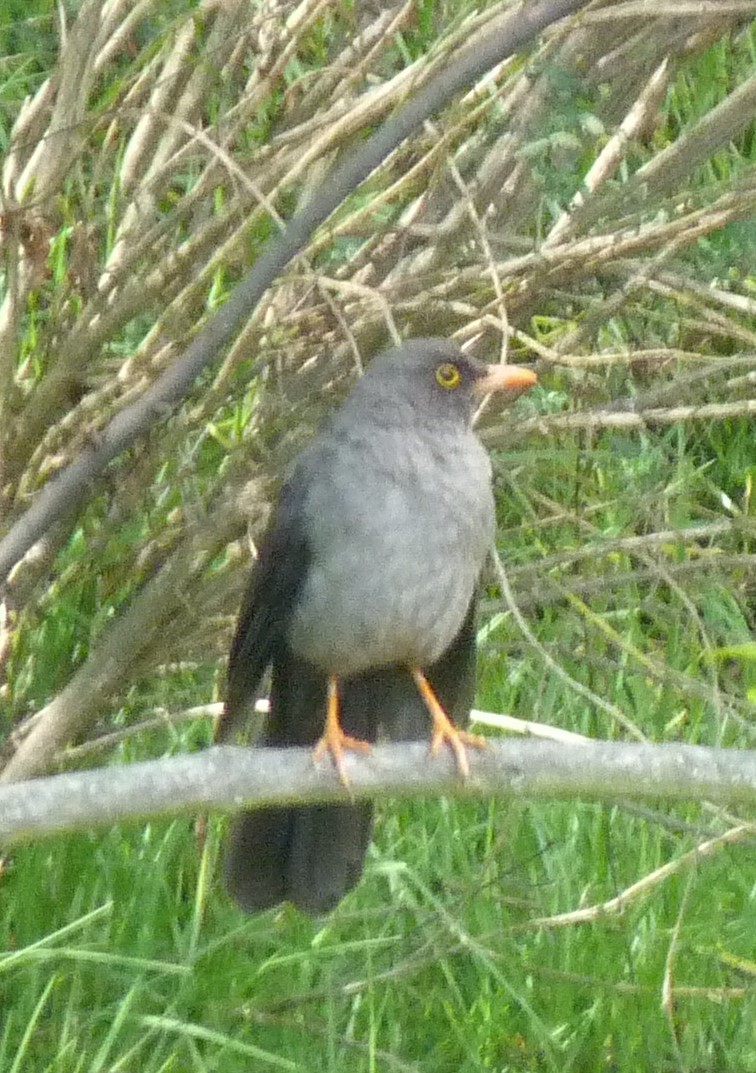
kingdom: Animalia
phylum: Chordata
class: Aves
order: Passeriformes
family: Turdidae
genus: Turdus
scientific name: Turdus fuscater
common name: Great thrush
